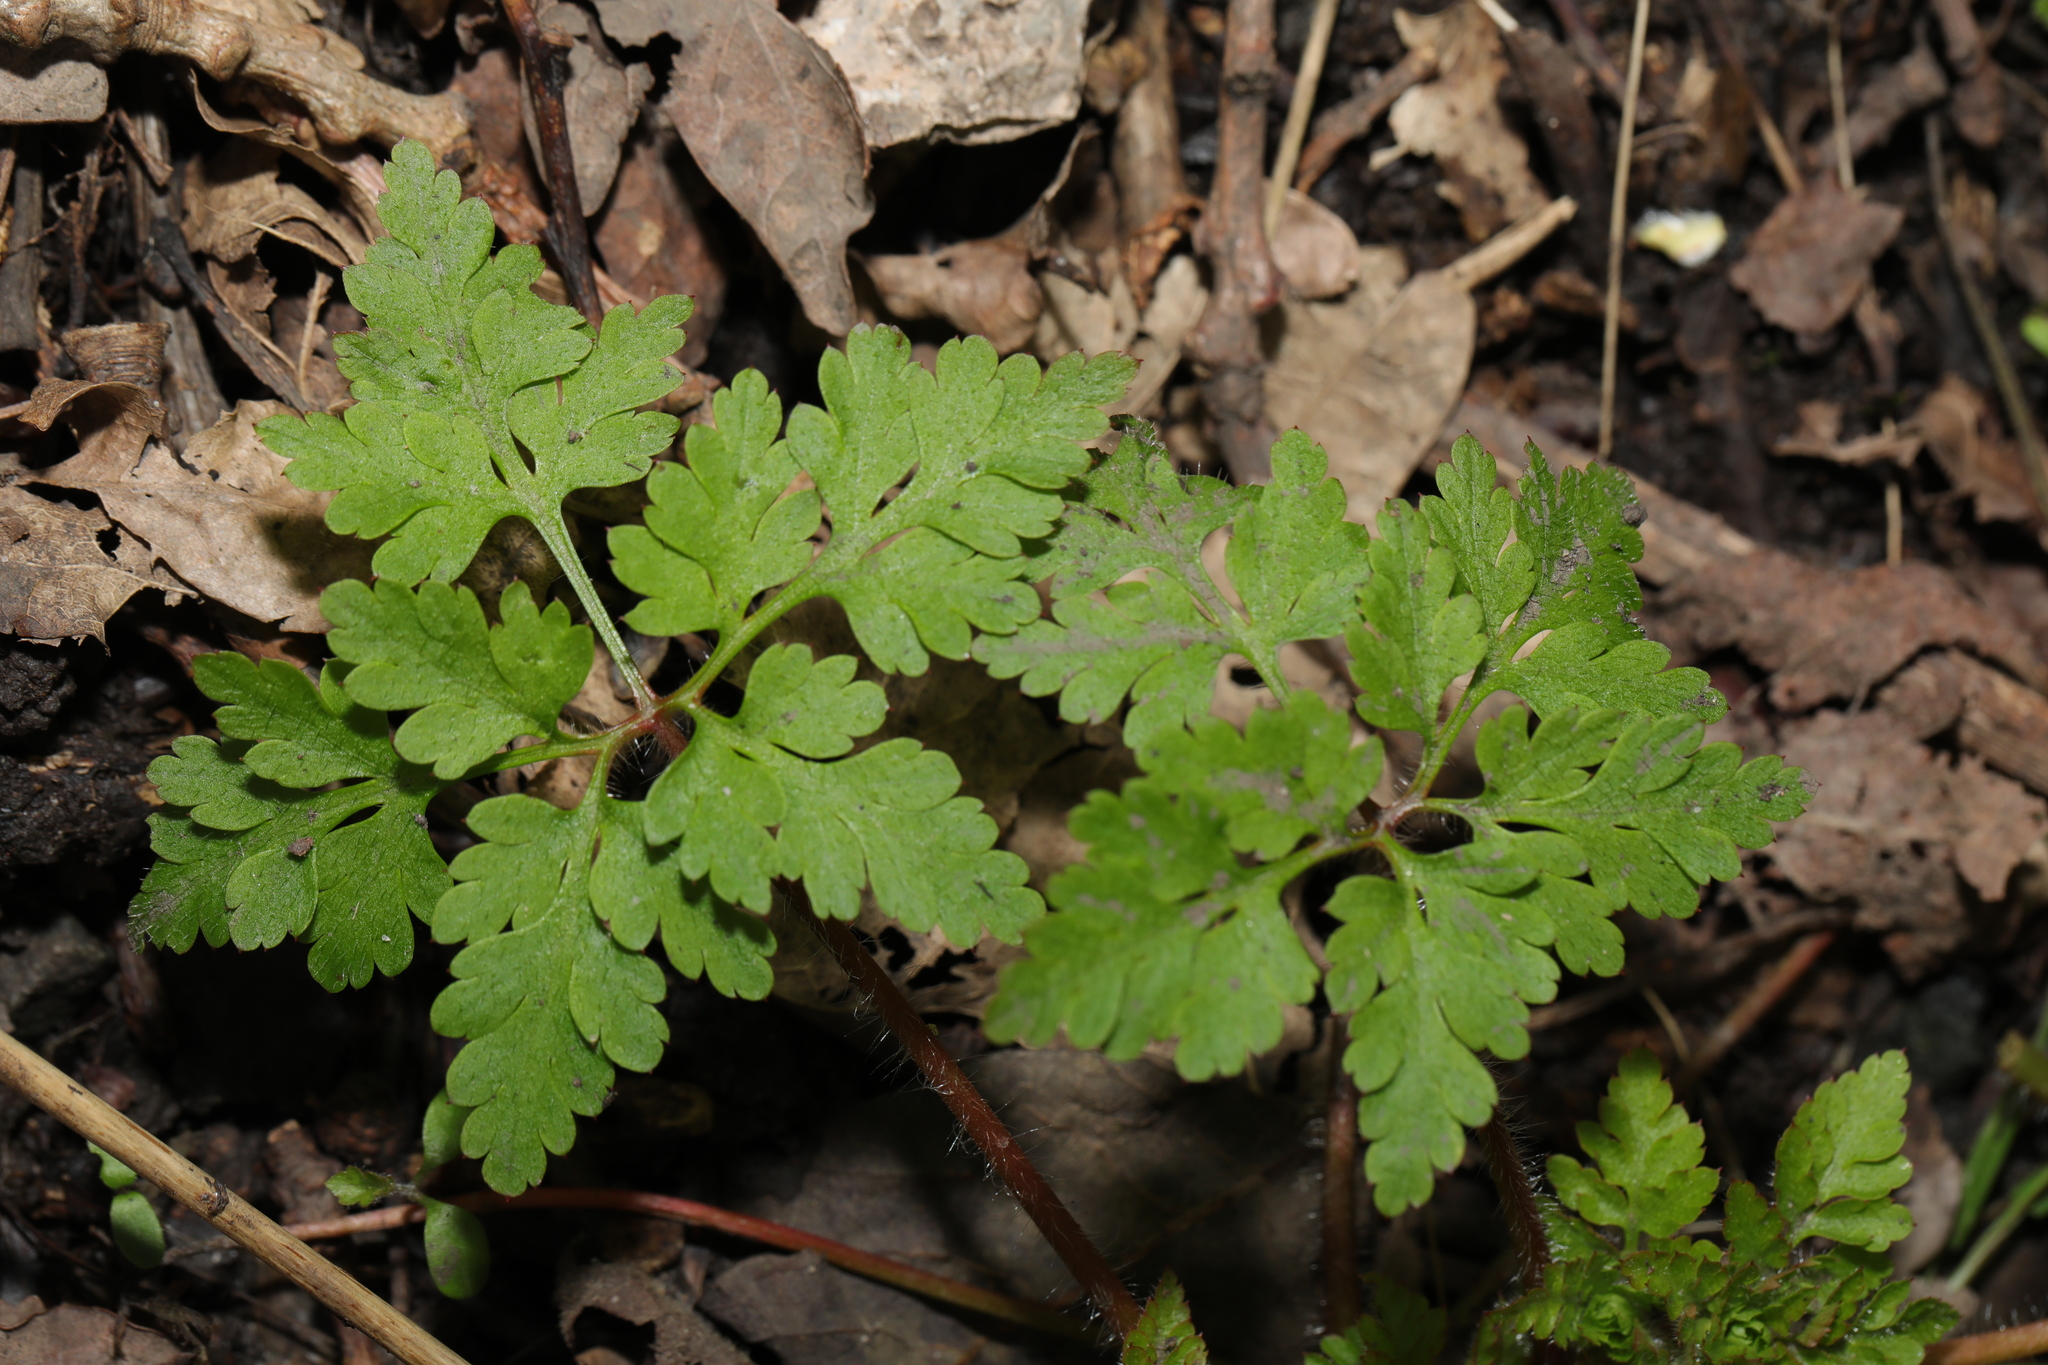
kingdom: Plantae
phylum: Tracheophyta
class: Magnoliopsida
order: Geraniales
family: Geraniaceae
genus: Geranium
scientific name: Geranium robertianum
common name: Herb-robert
